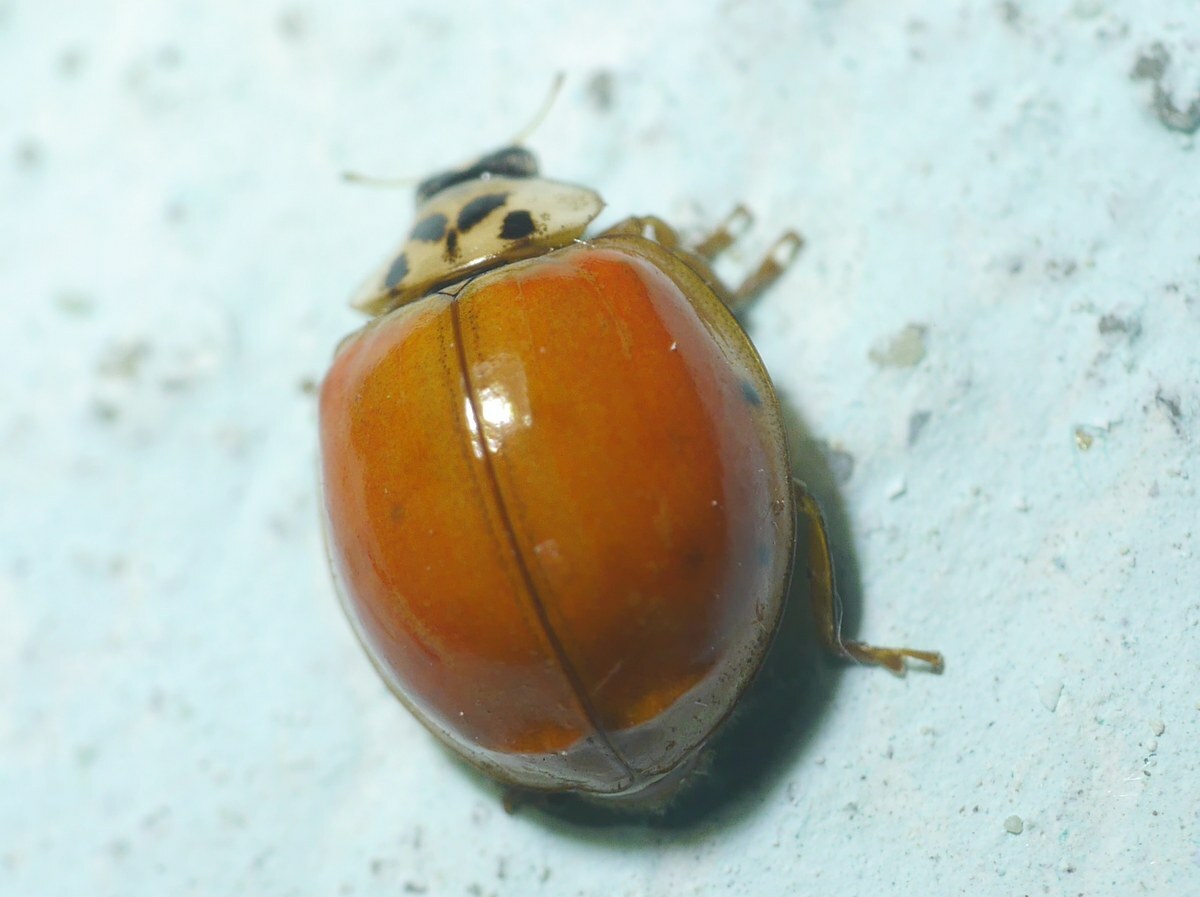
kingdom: Animalia
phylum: Arthropoda
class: Insecta
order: Coleoptera
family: Coccinellidae
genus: Harmonia
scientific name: Harmonia axyridis
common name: Harlequin ladybird
